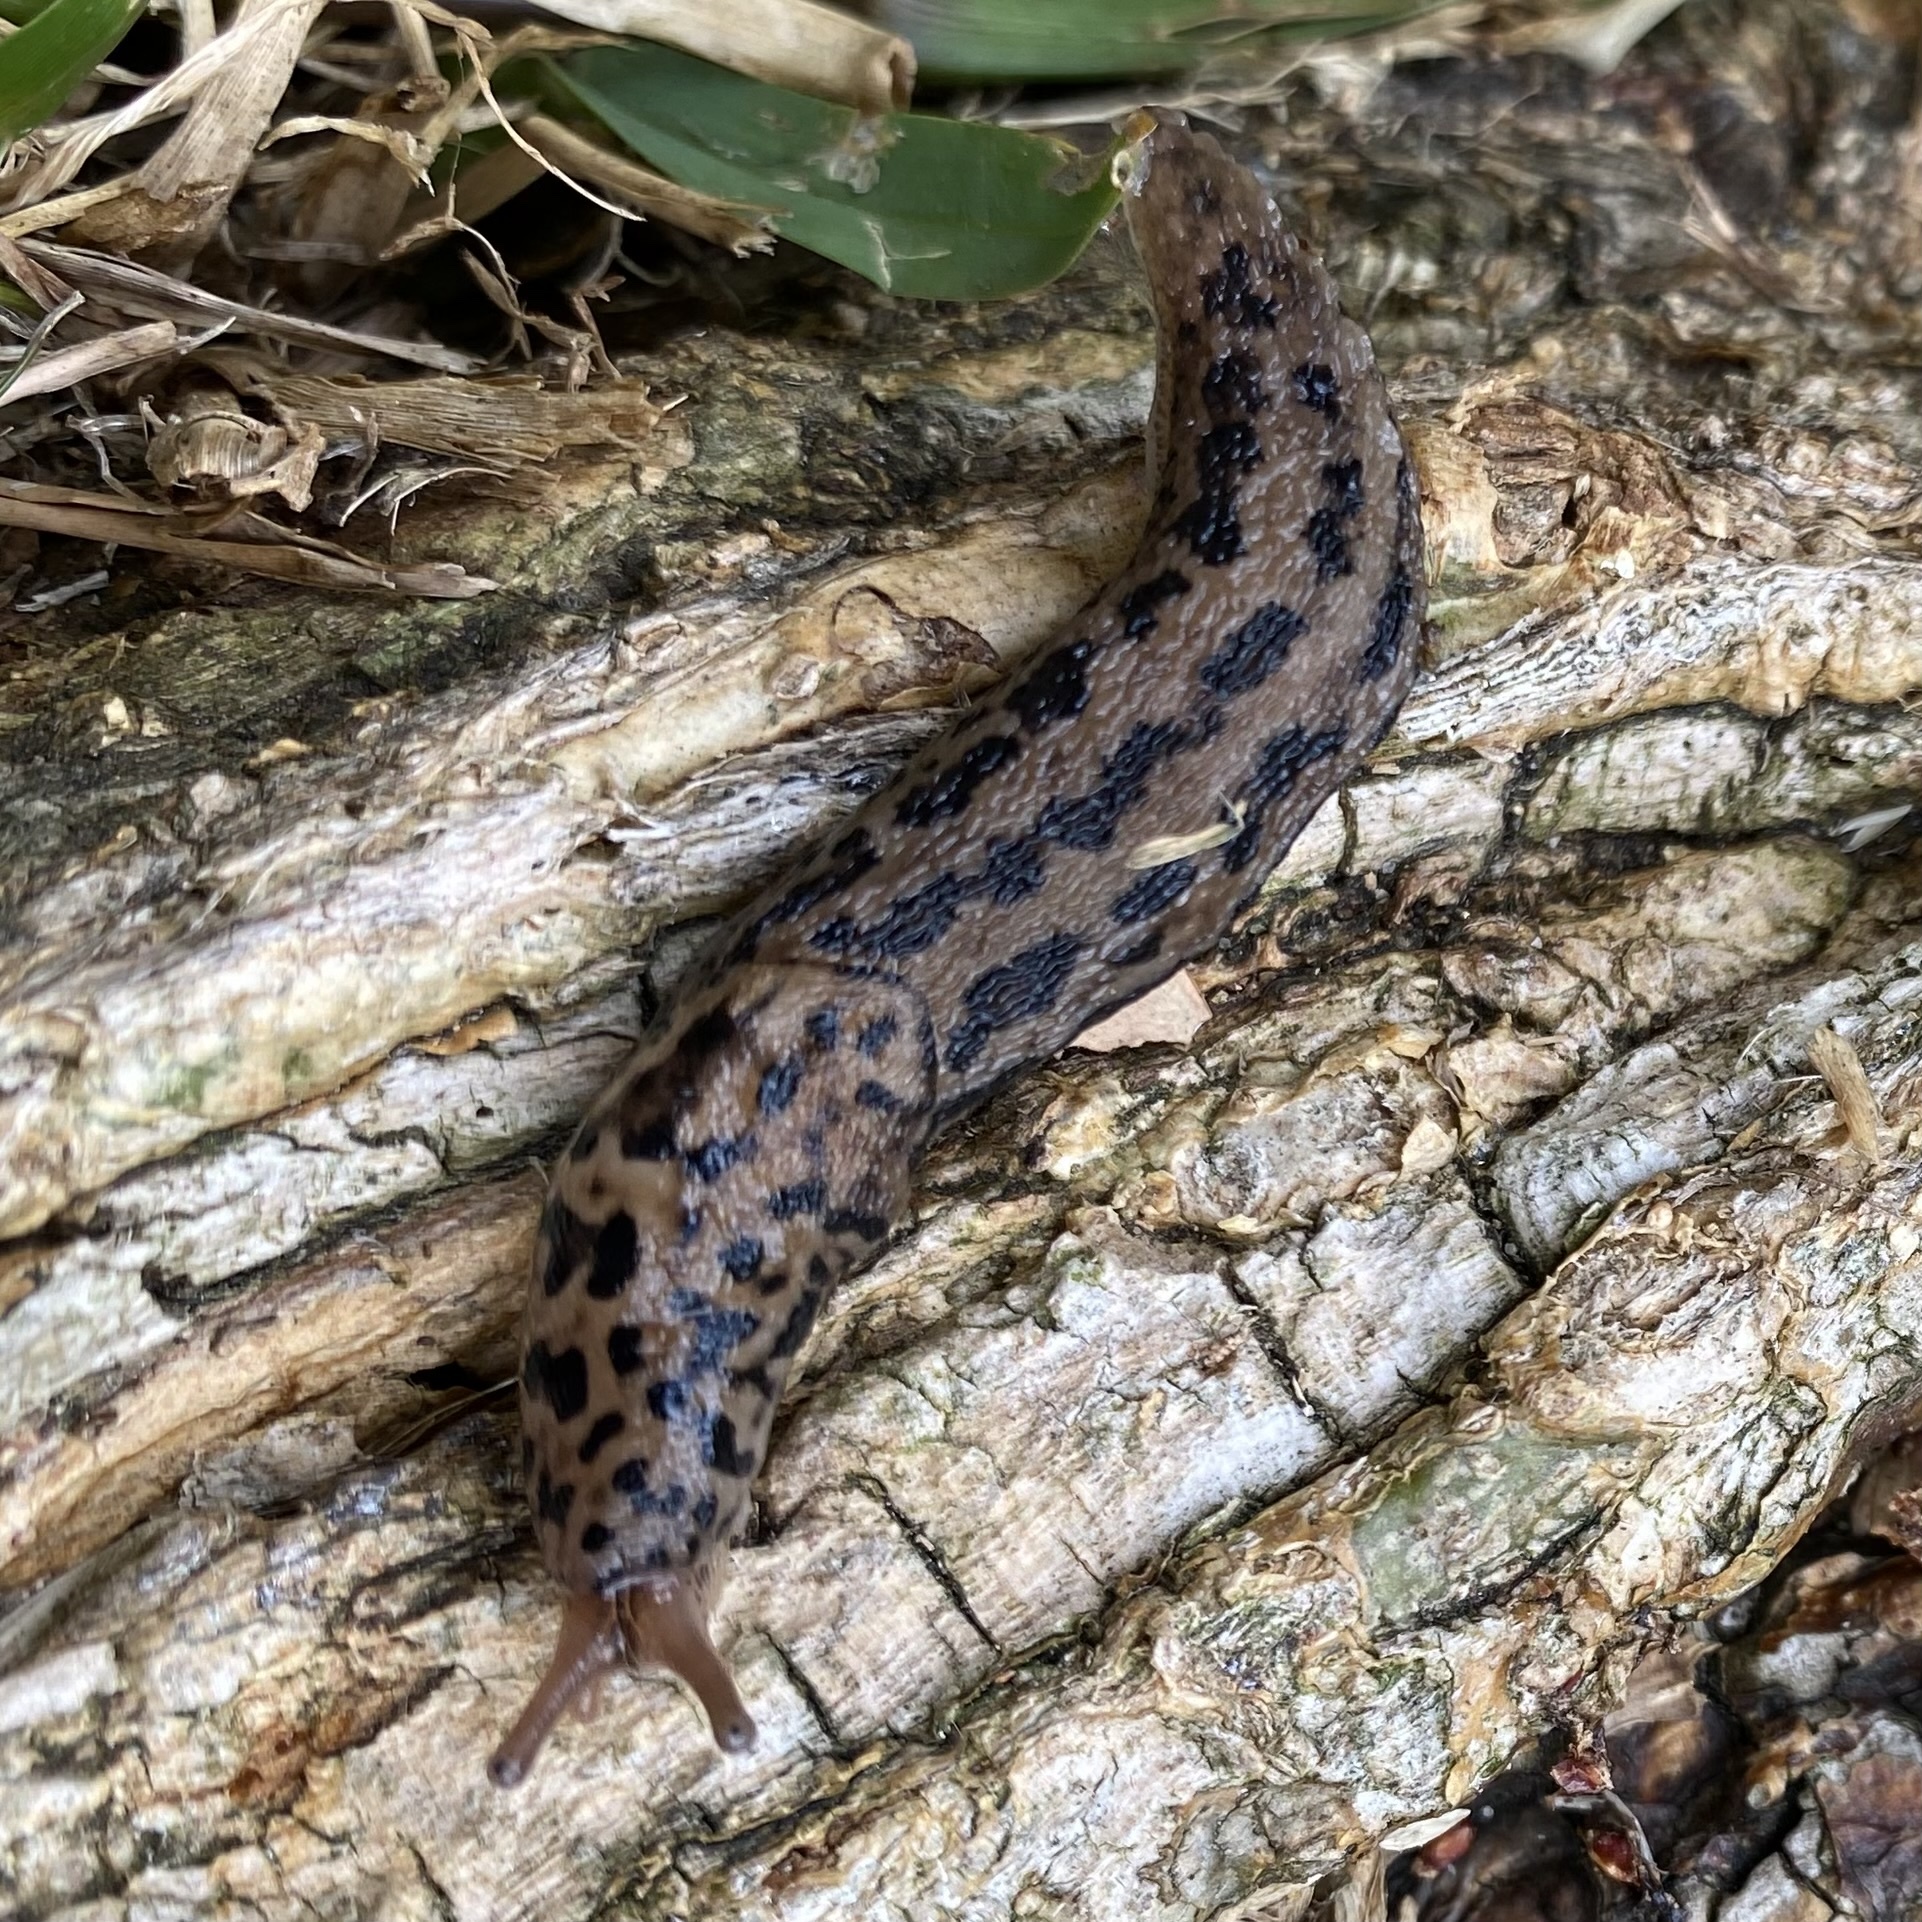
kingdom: Animalia
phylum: Mollusca
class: Gastropoda
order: Stylommatophora
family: Limacidae
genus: Limax
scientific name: Limax maximus
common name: Great grey slug
